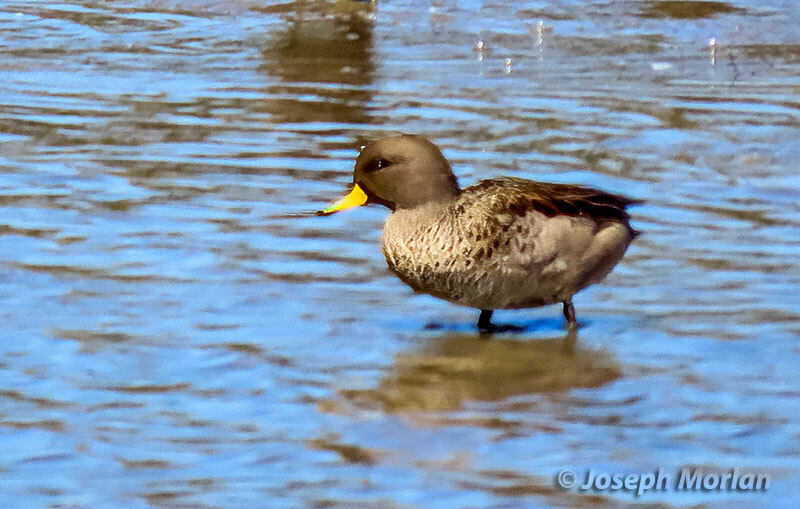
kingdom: Animalia
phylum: Chordata
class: Aves
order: Anseriformes
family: Anatidae
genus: Anas
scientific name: Anas flavirostris
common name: Yellow-billed teal
